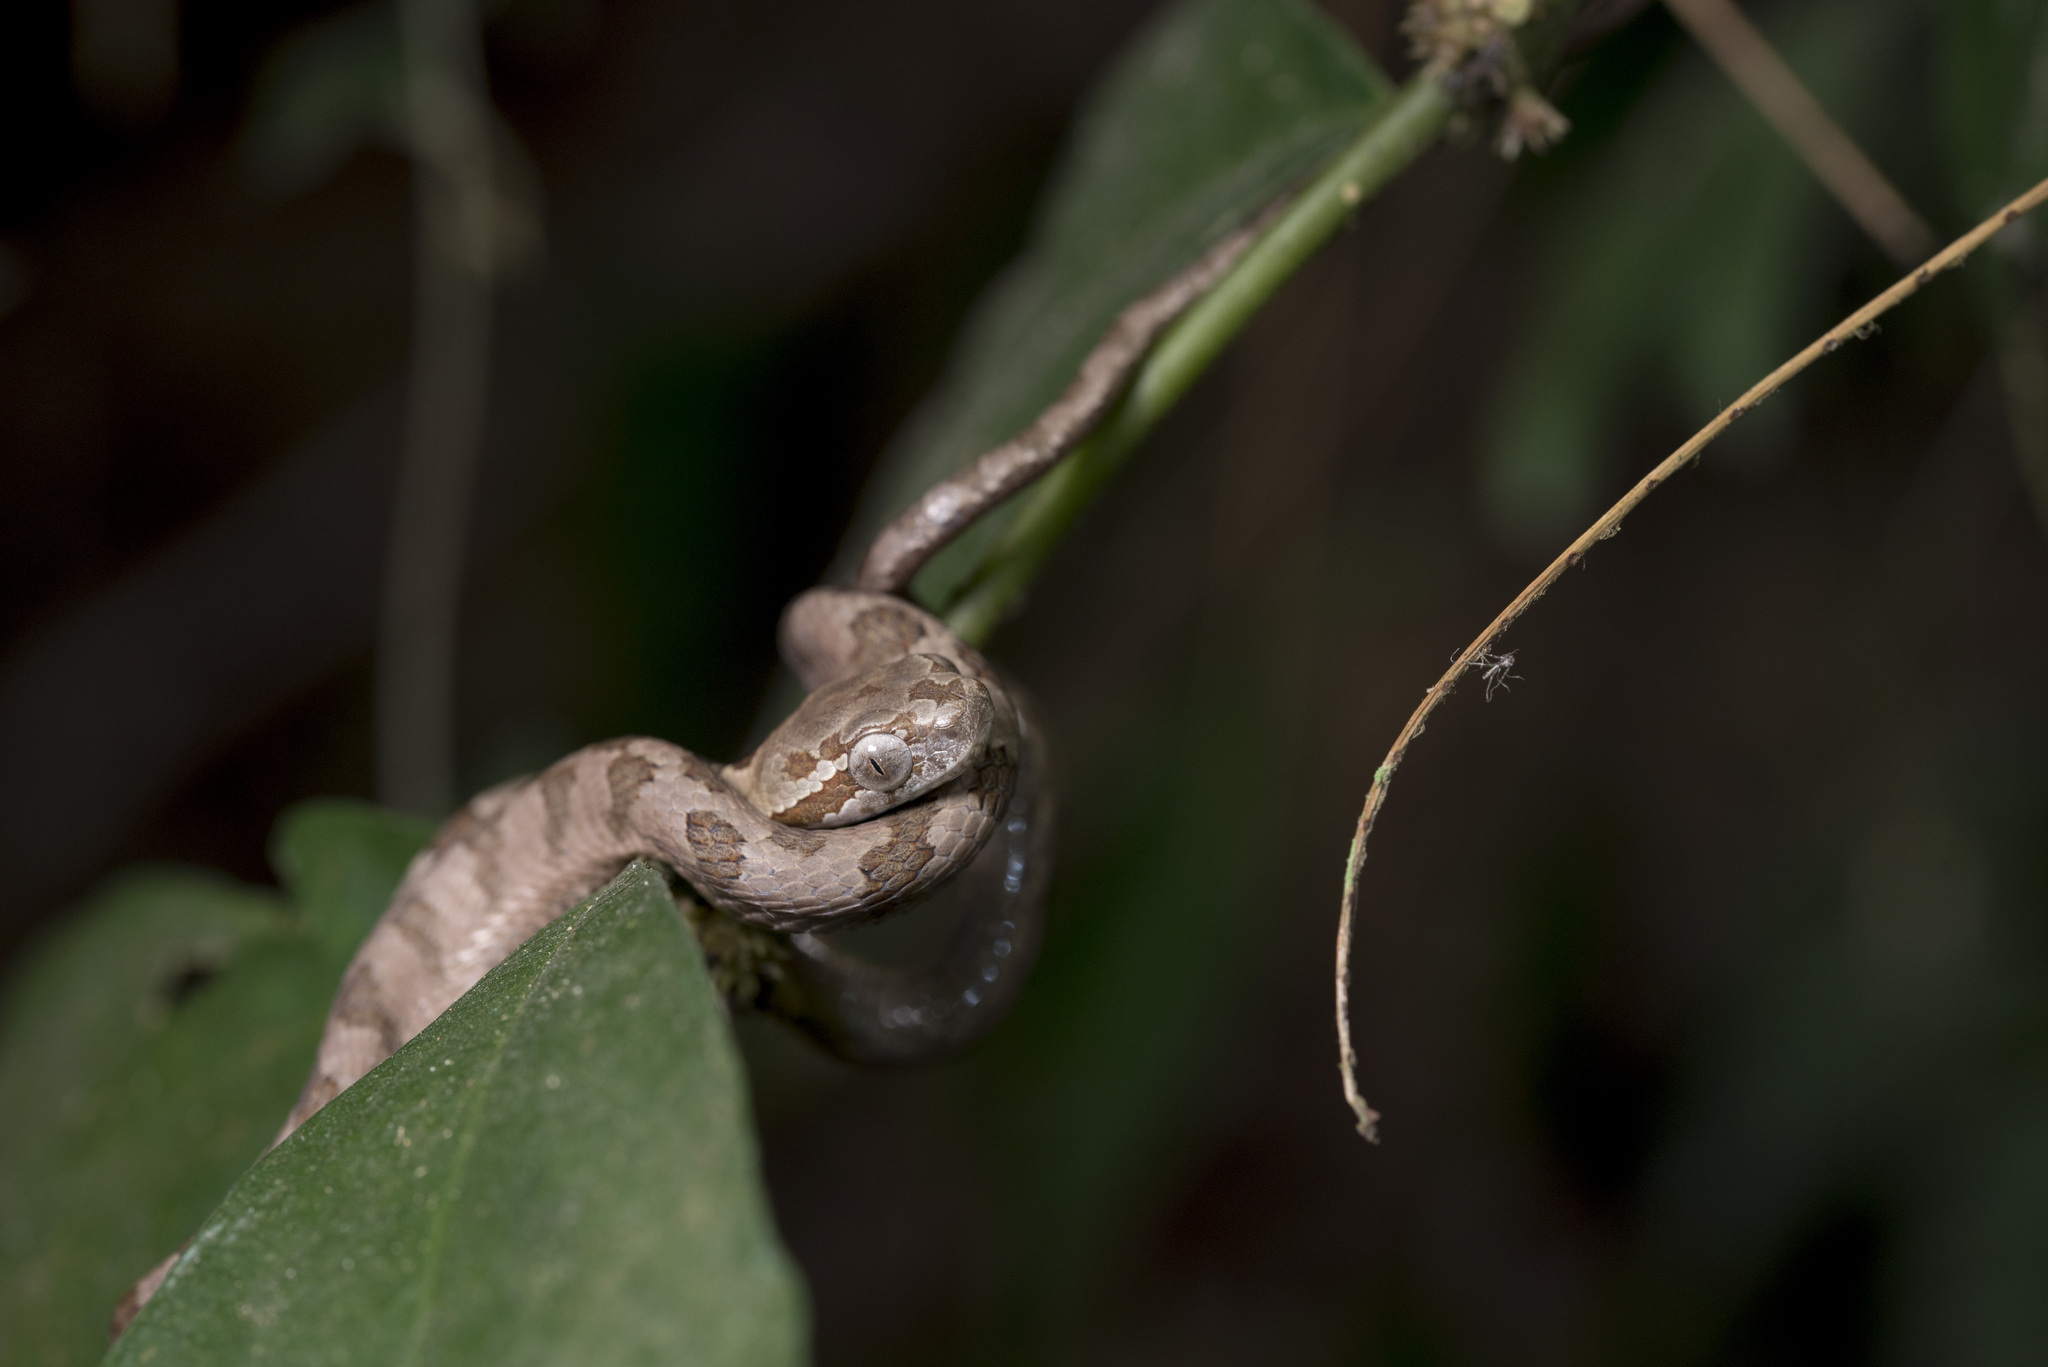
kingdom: Animalia
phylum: Chordata
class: Squamata
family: Colubridae
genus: Boiga
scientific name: Boiga kraepelini
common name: Kelung cat snake
